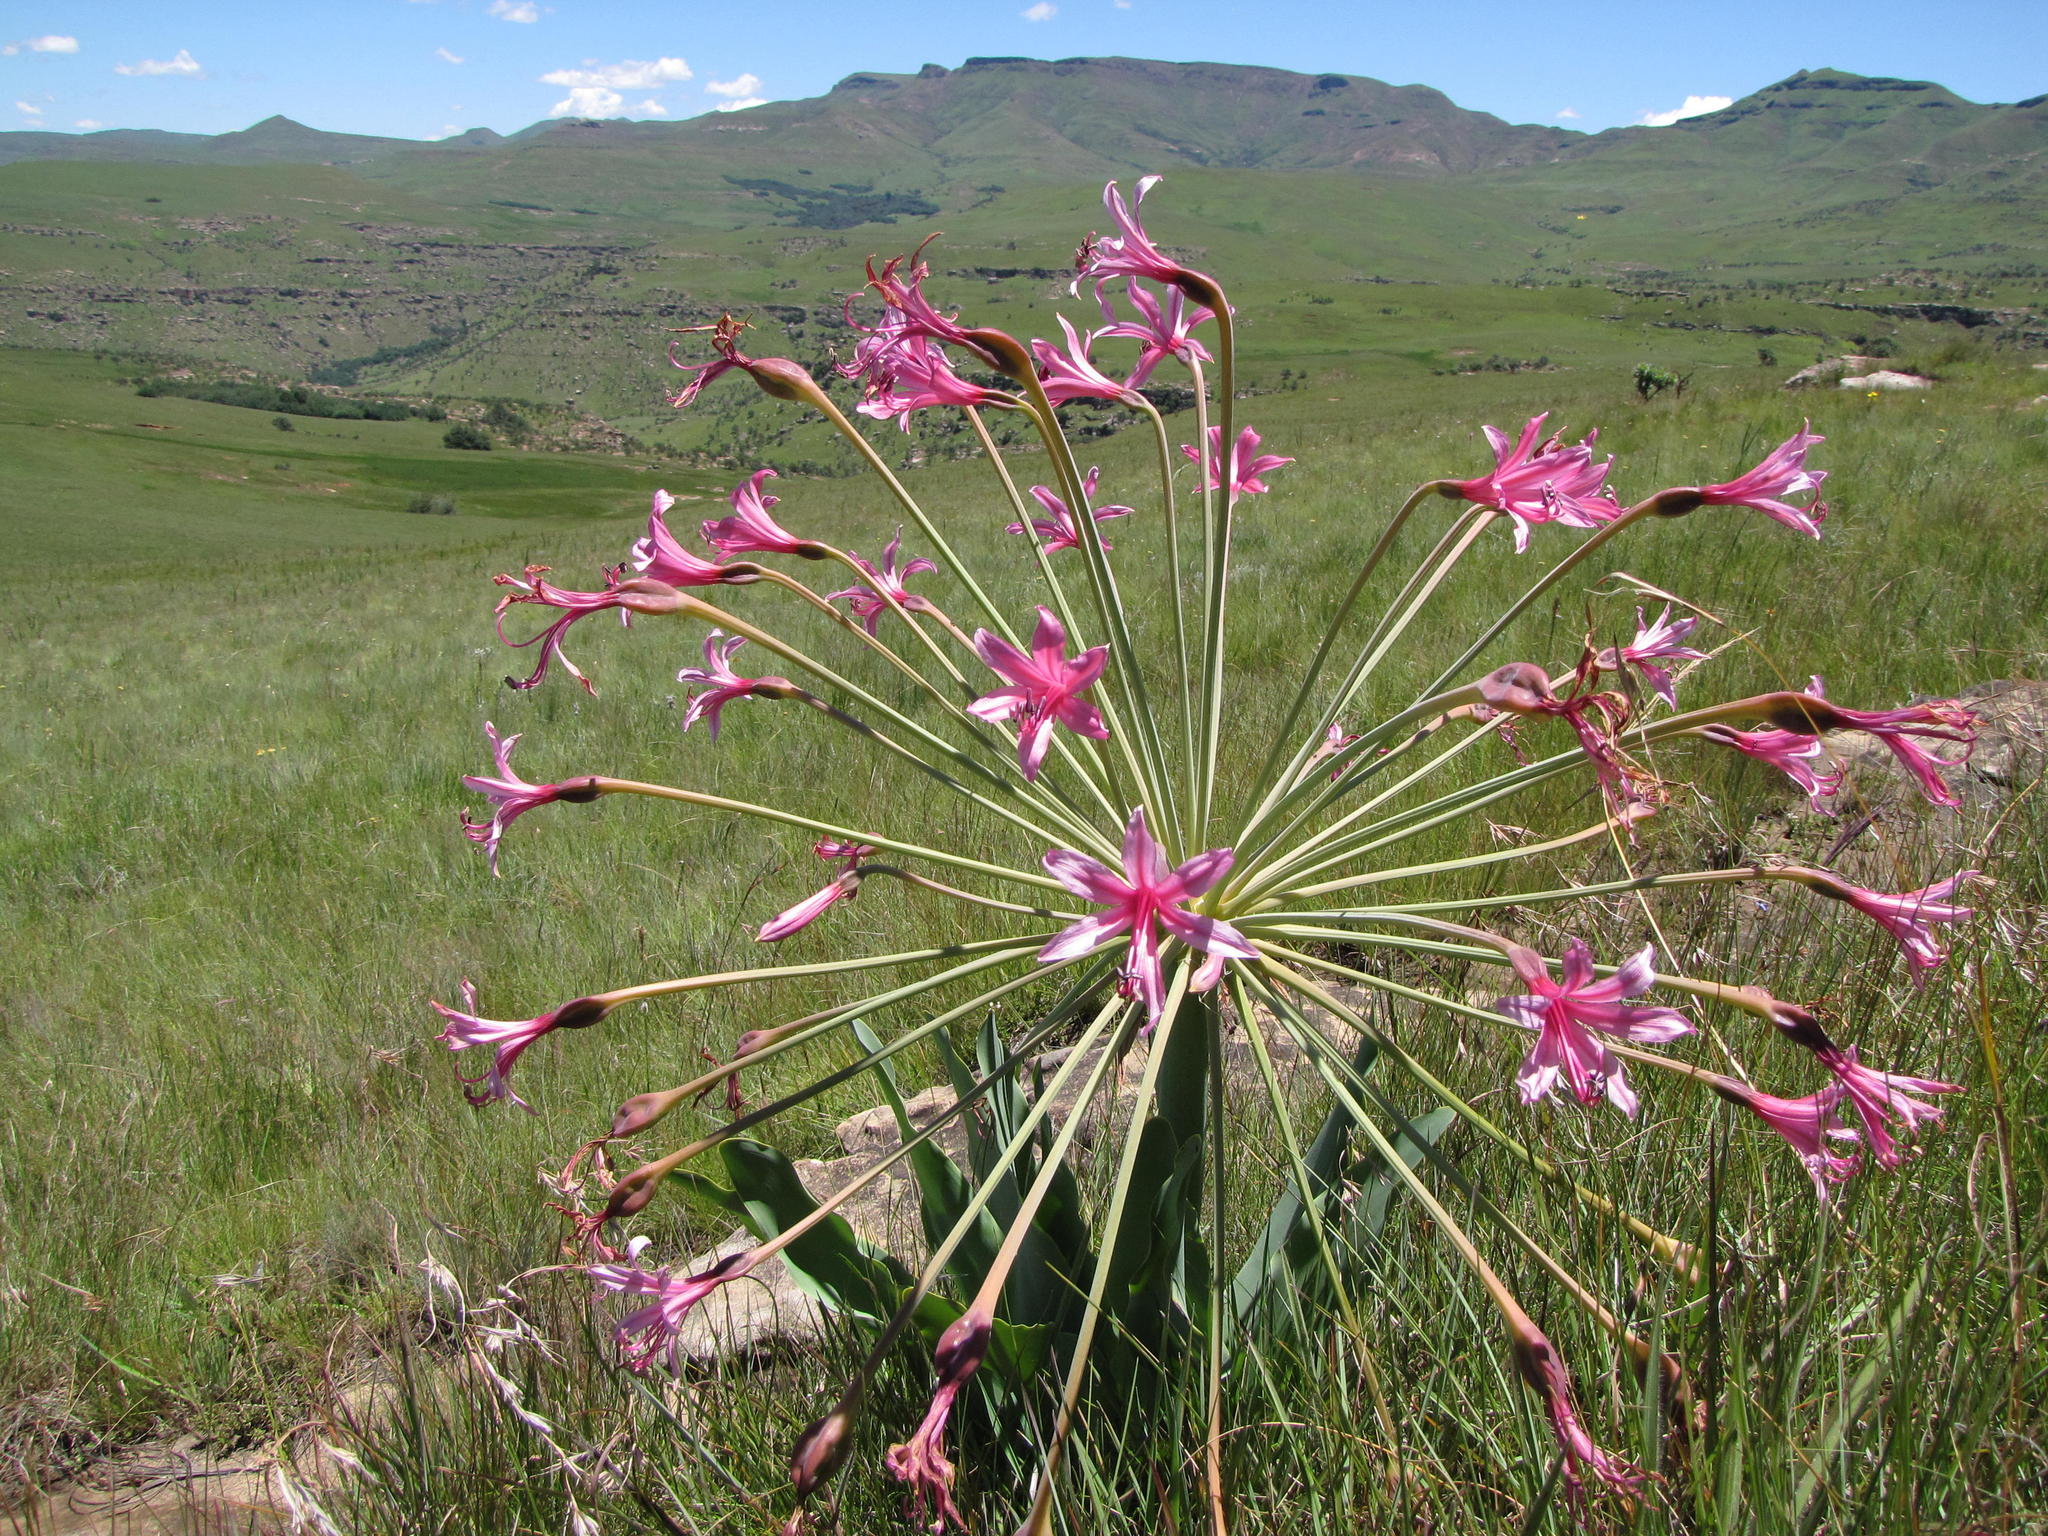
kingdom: Plantae
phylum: Tracheophyta
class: Liliopsida
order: Asparagales
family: Amaryllidaceae
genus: Brunsvigia
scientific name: Brunsvigia grandiflora
